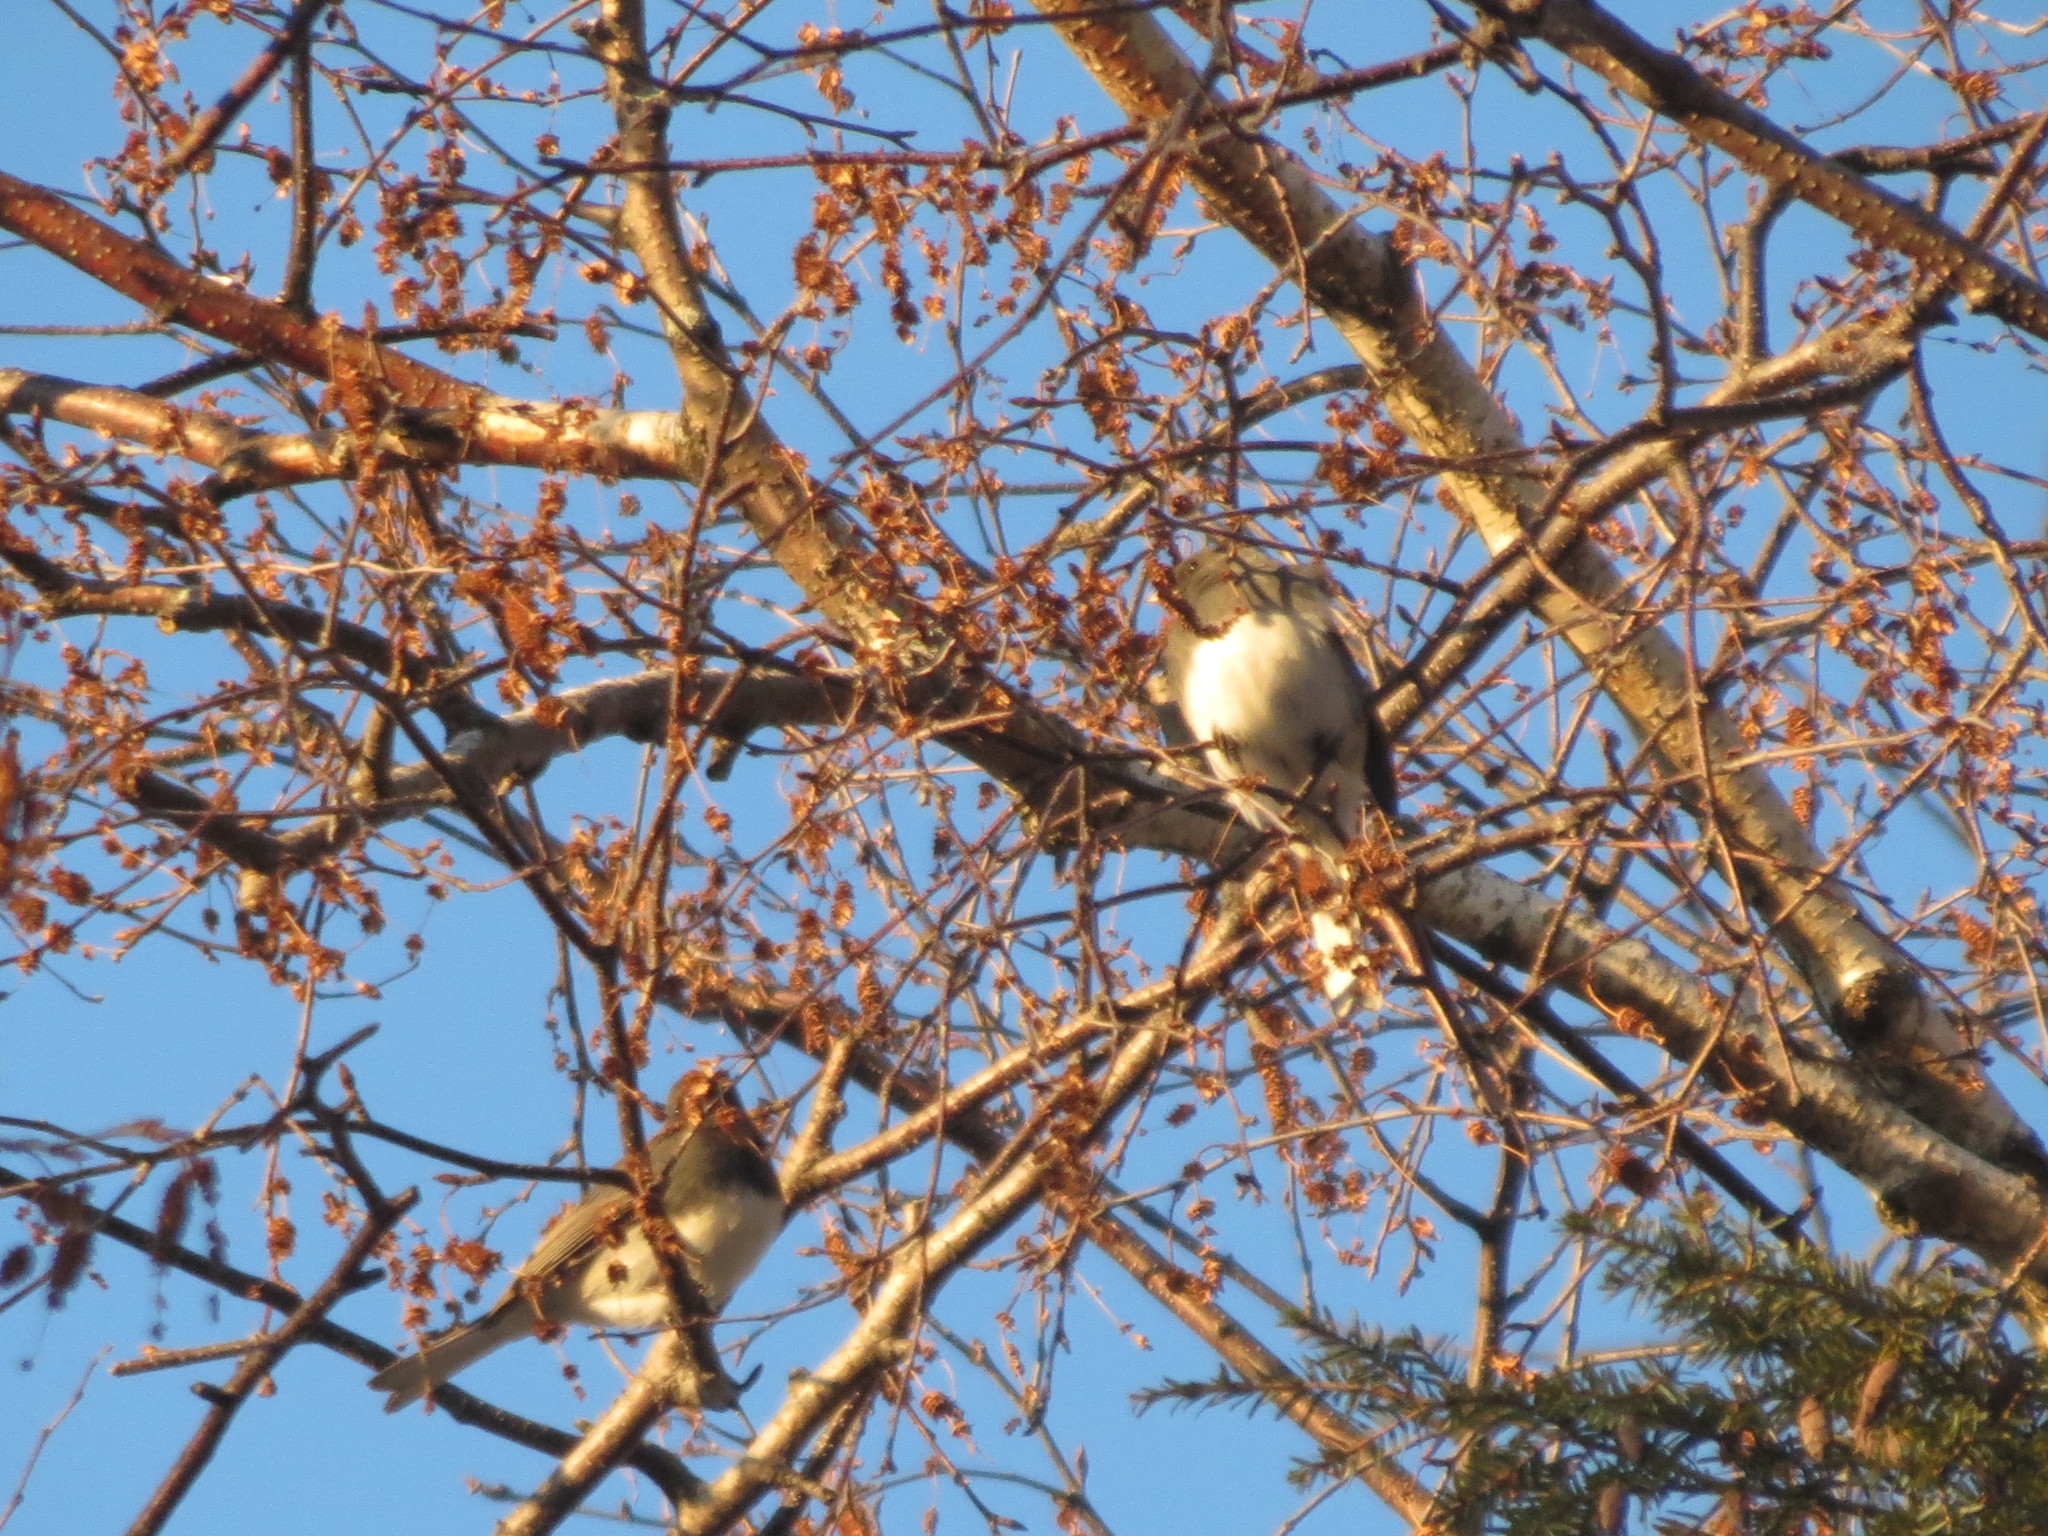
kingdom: Animalia
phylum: Chordata
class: Aves
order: Passeriformes
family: Passerellidae
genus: Junco
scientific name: Junco hyemalis
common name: Dark-eyed junco
